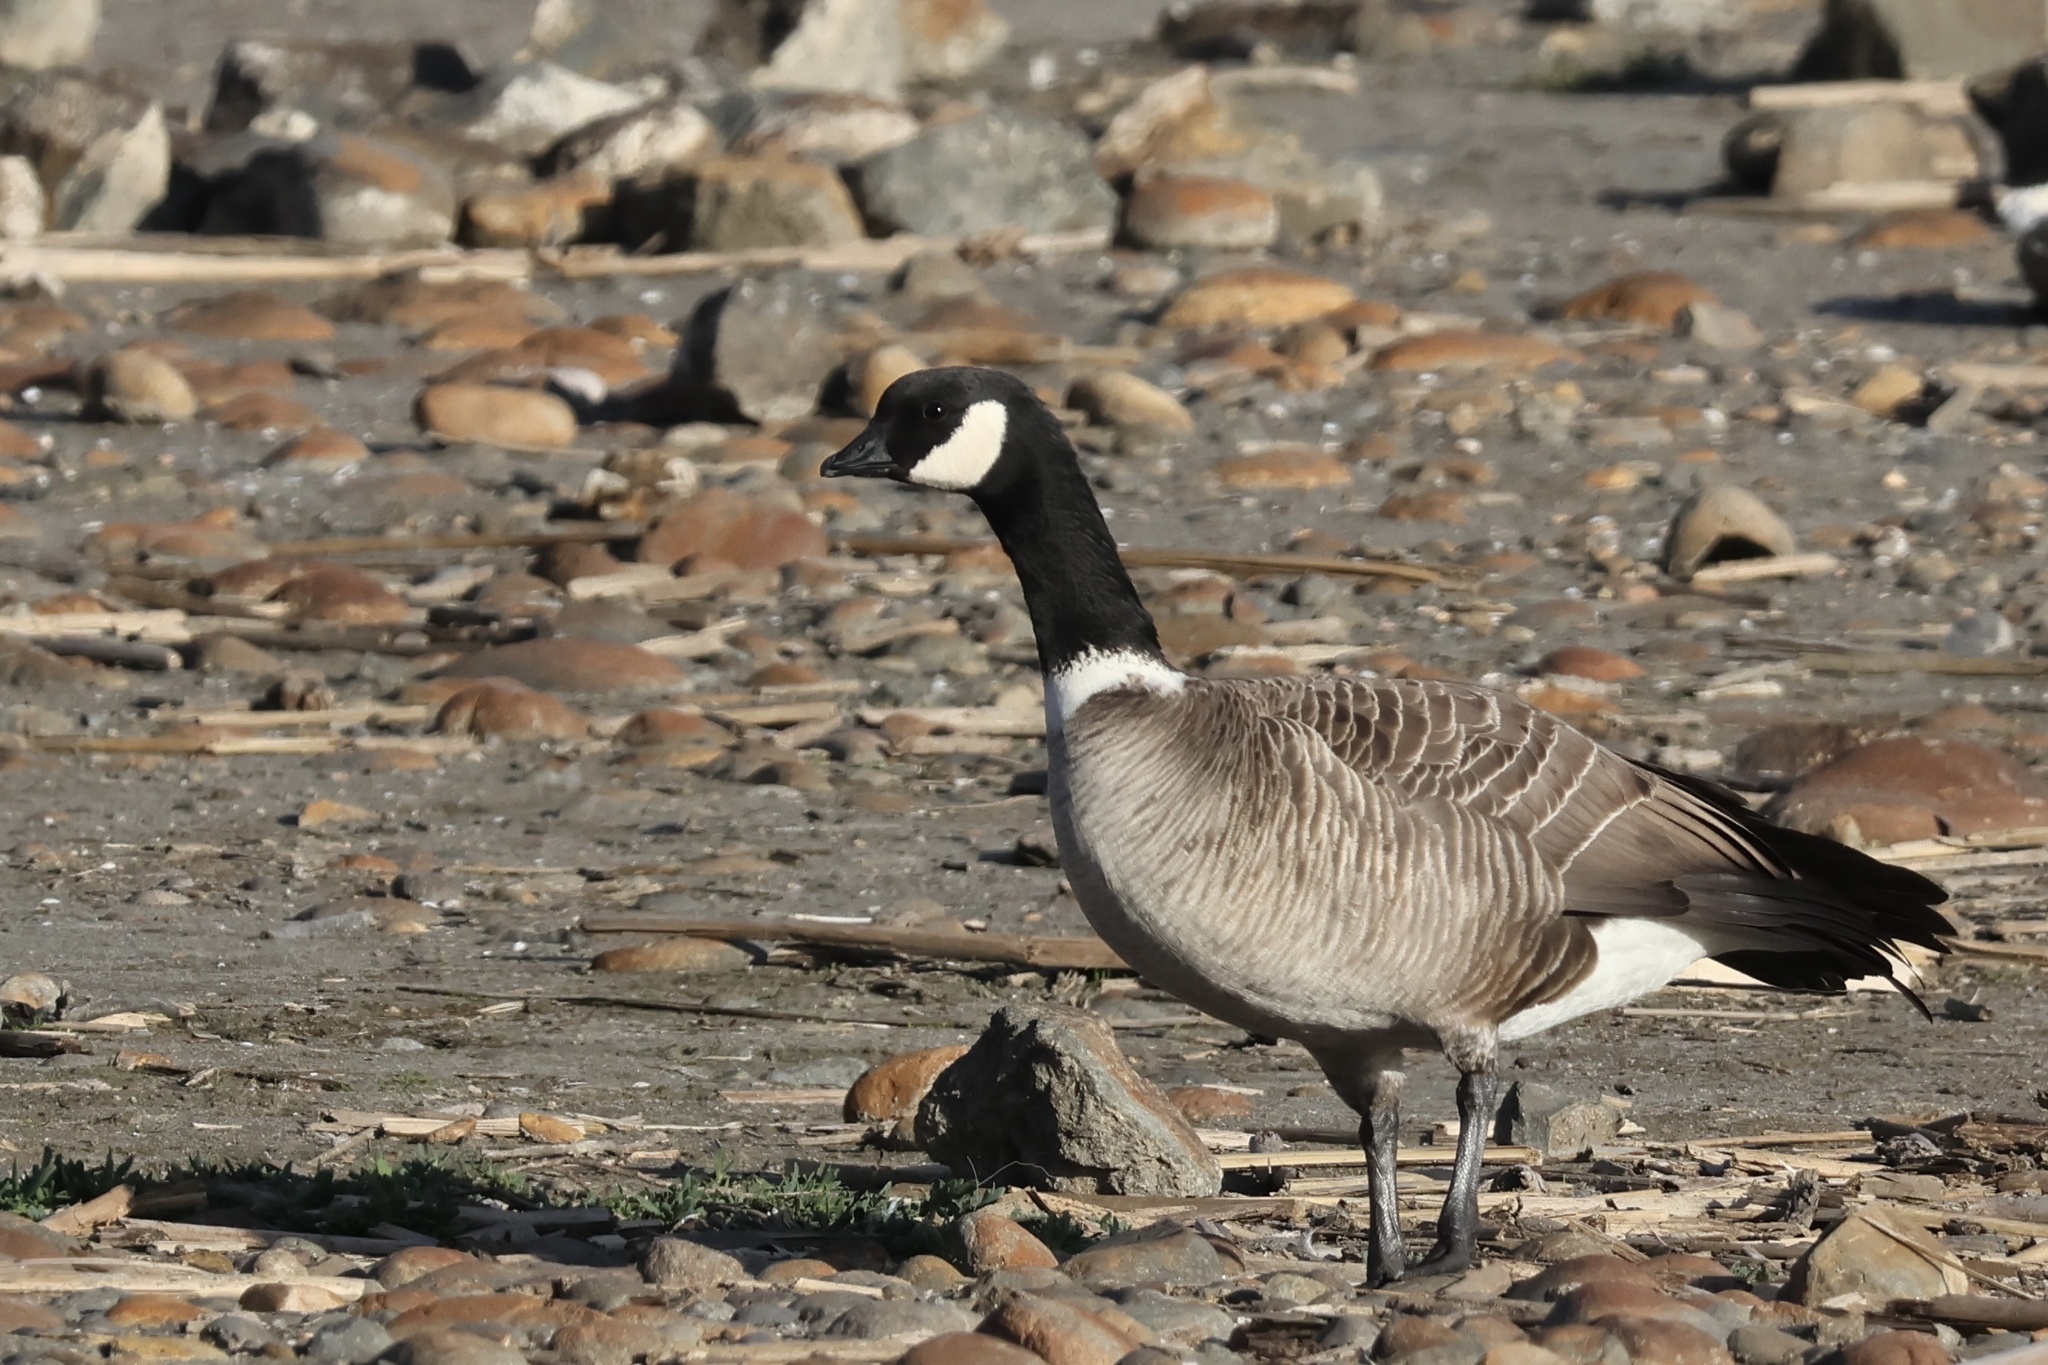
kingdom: Animalia
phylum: Chordata
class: Aves
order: Anseriformes
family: Anatidae
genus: Branta
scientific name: Branta hutchinsii
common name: Cackling goose
